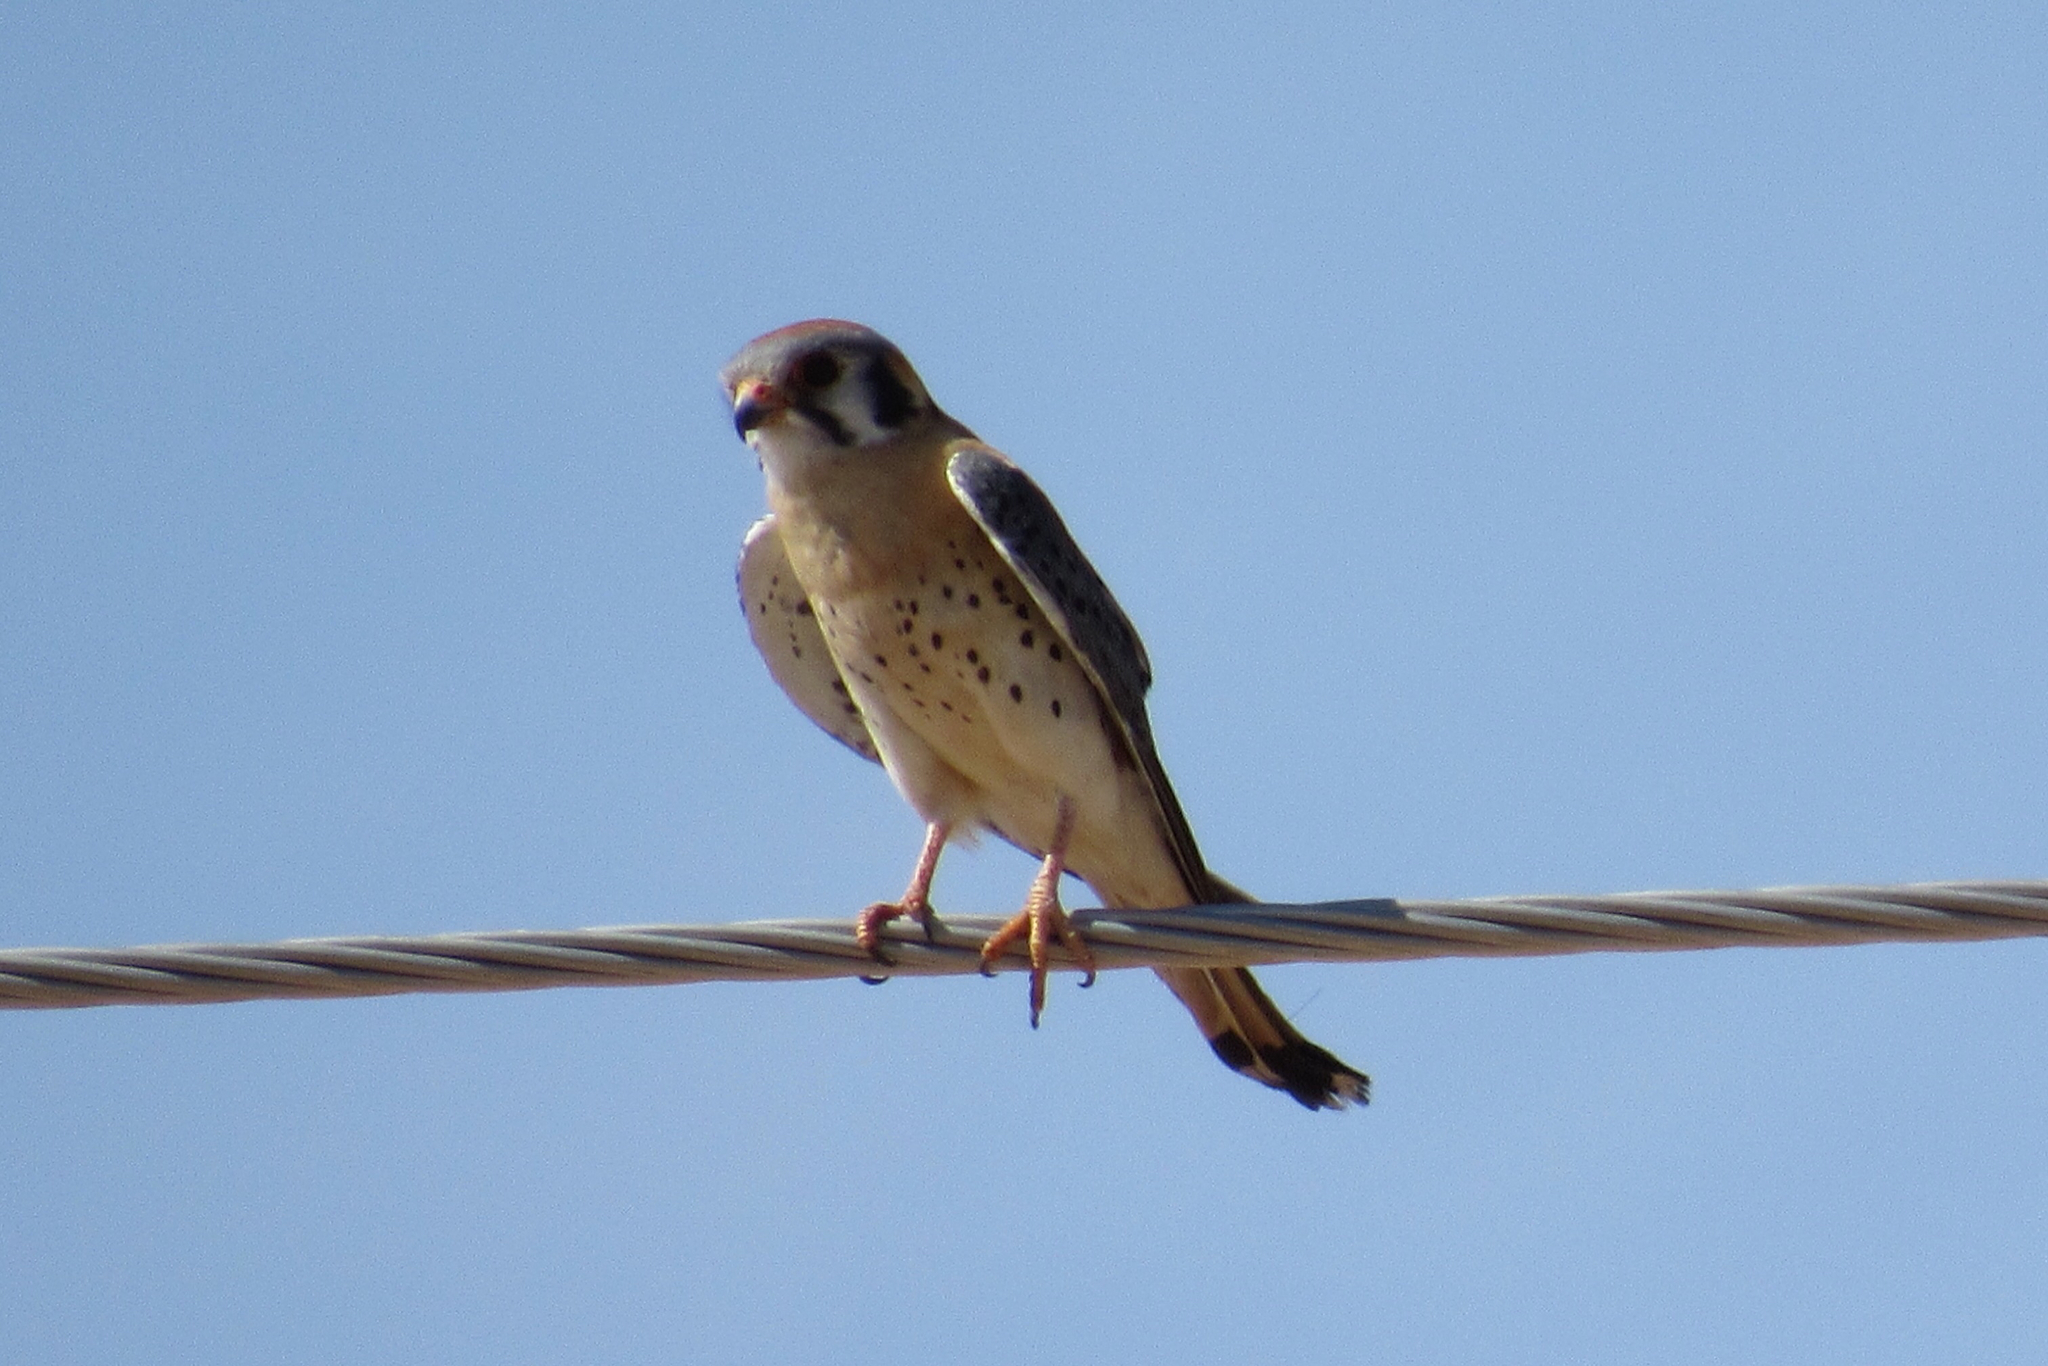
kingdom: Animalia
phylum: Chordata
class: Aves
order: Falconiformes
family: Falconidae
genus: Falco
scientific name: Falco sparverius
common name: American kestrel
